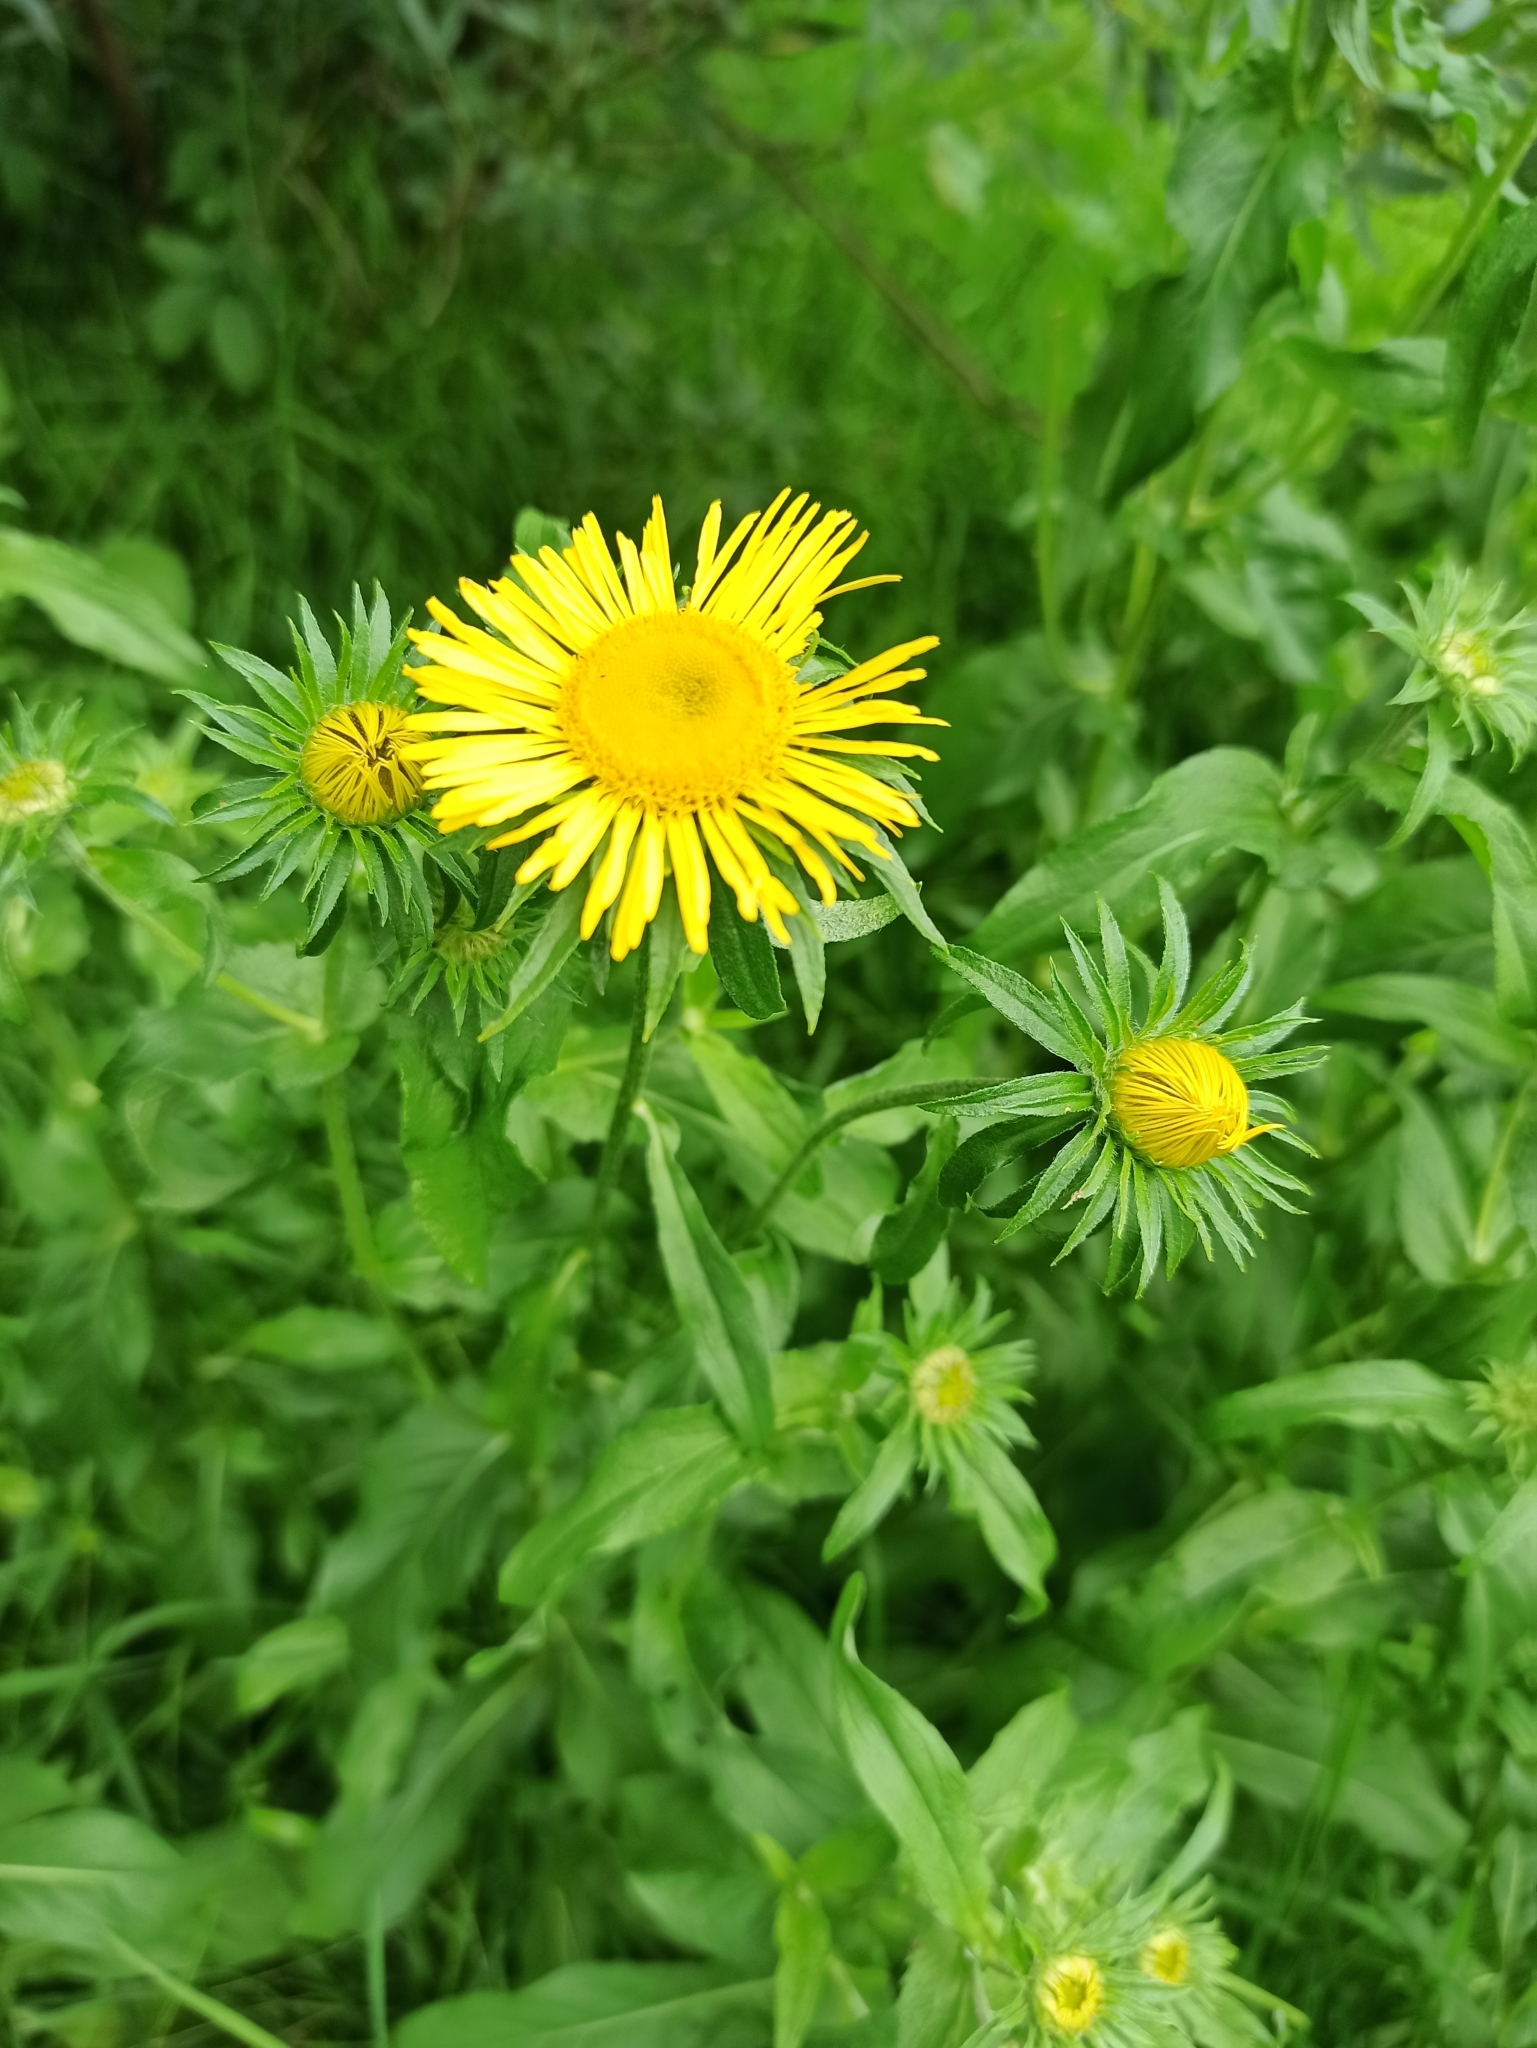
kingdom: Plantae
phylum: Tracheophyta
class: Magnoliopsida
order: Asterales
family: Asteraceae
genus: Pentanema
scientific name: Pentanema britannicum
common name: British elecampane
